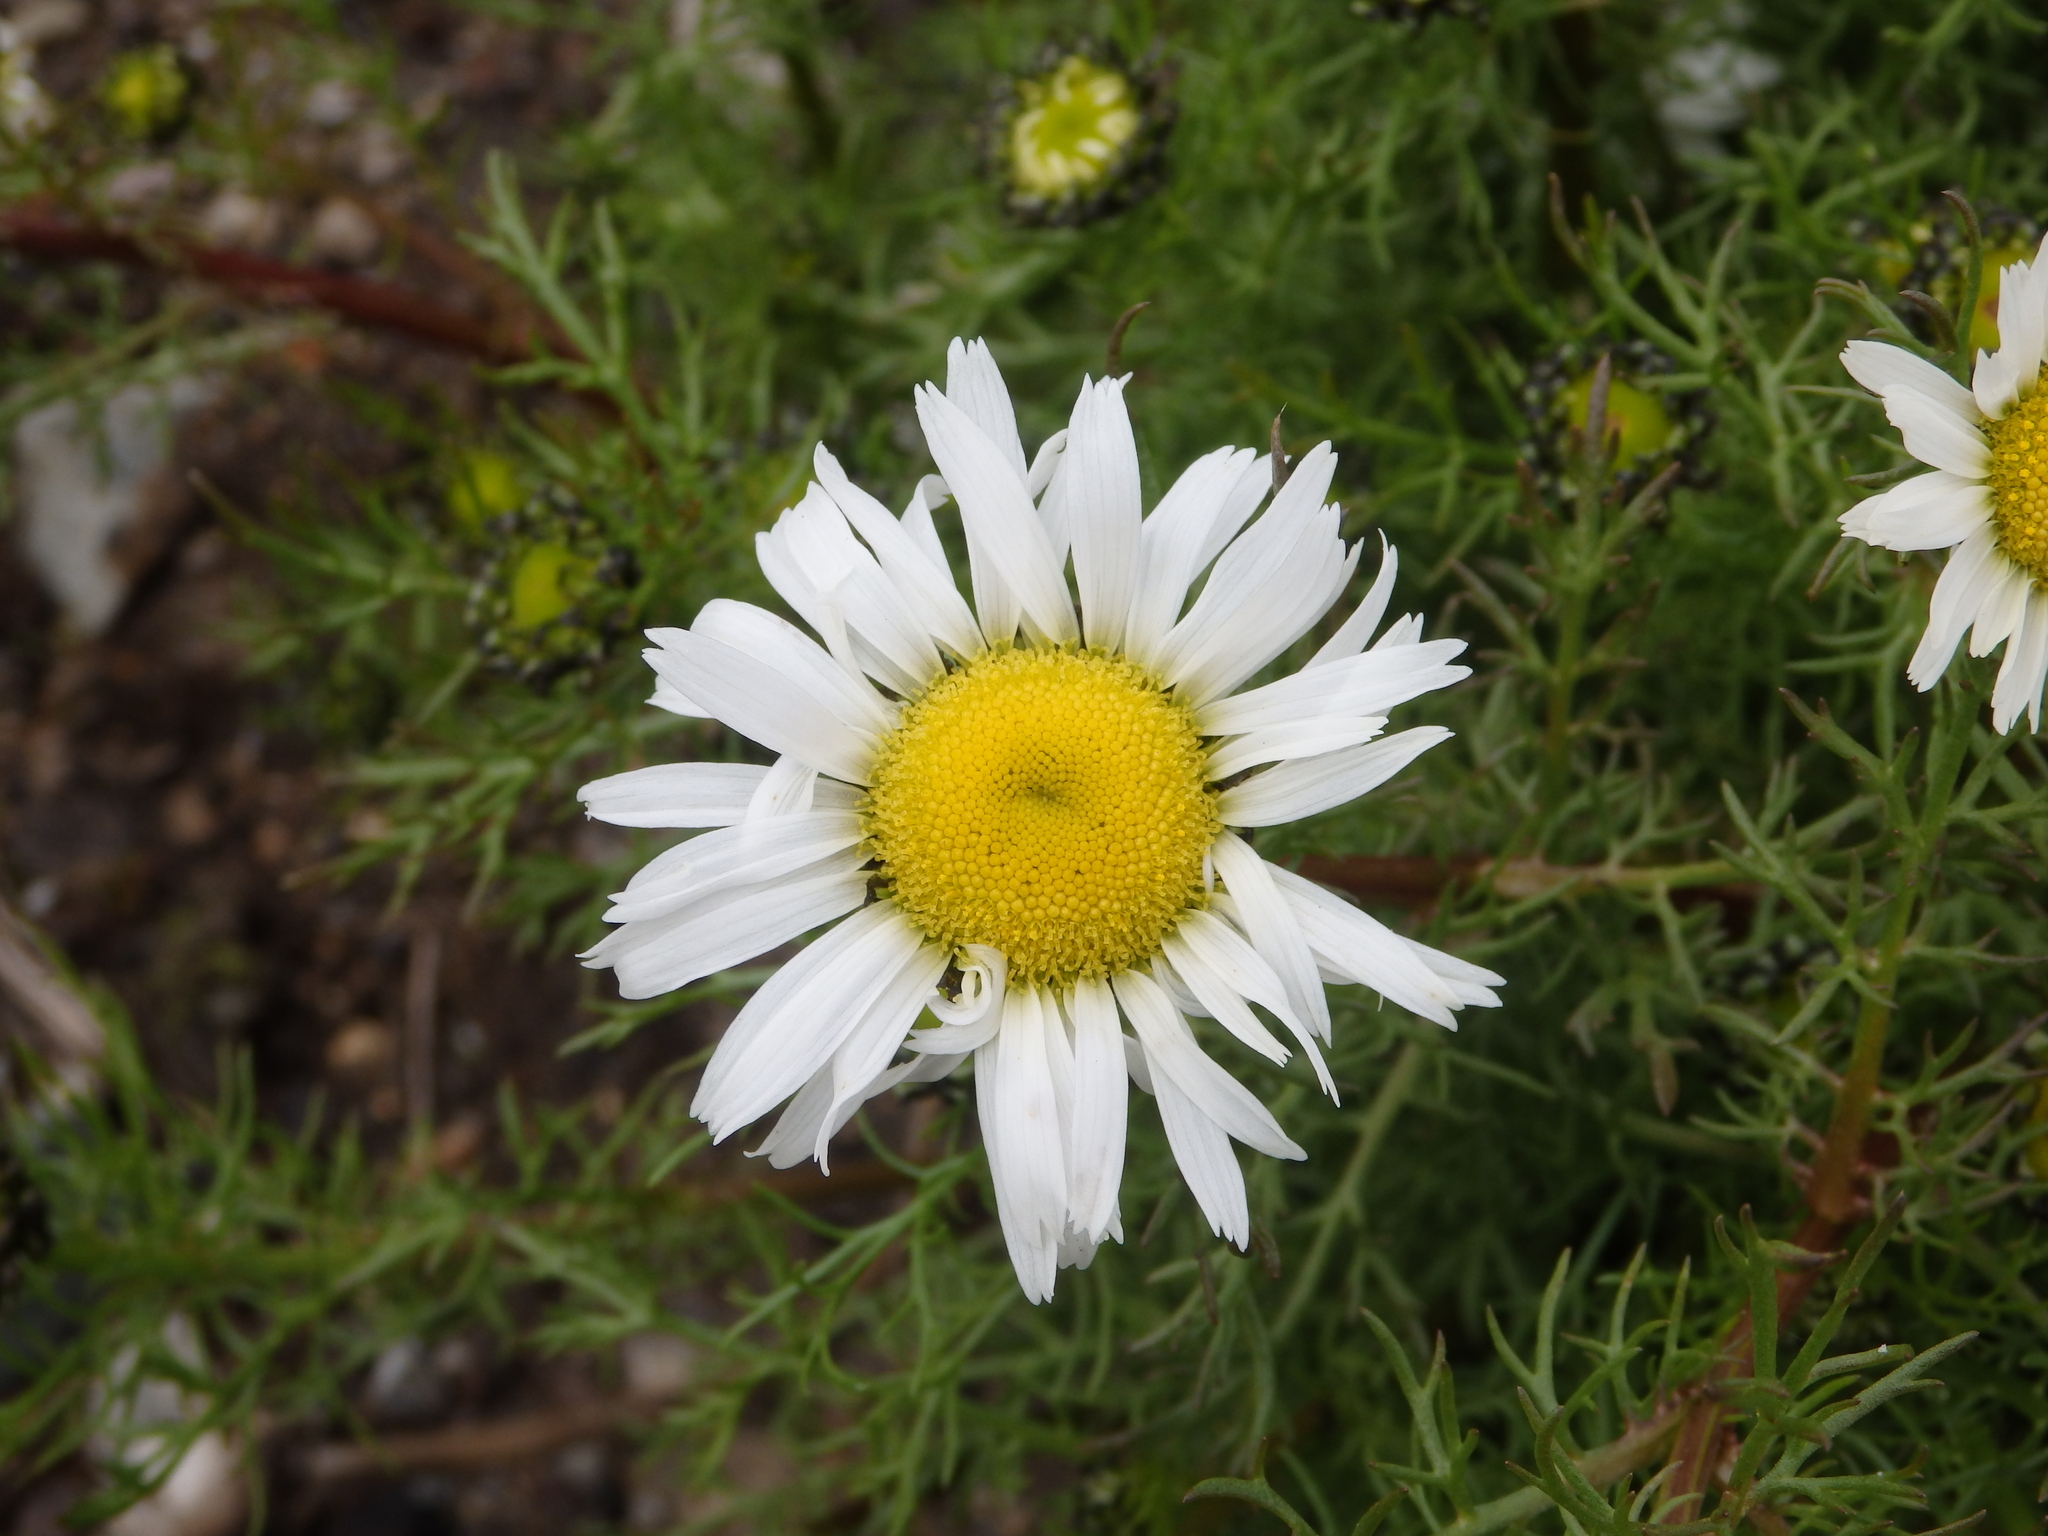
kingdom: Plantae
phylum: Tracheophyta
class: Magnoliopsida
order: Asterales
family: Asteraceae
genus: Tripleurospermum
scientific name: Tripleurospermum hookeri
